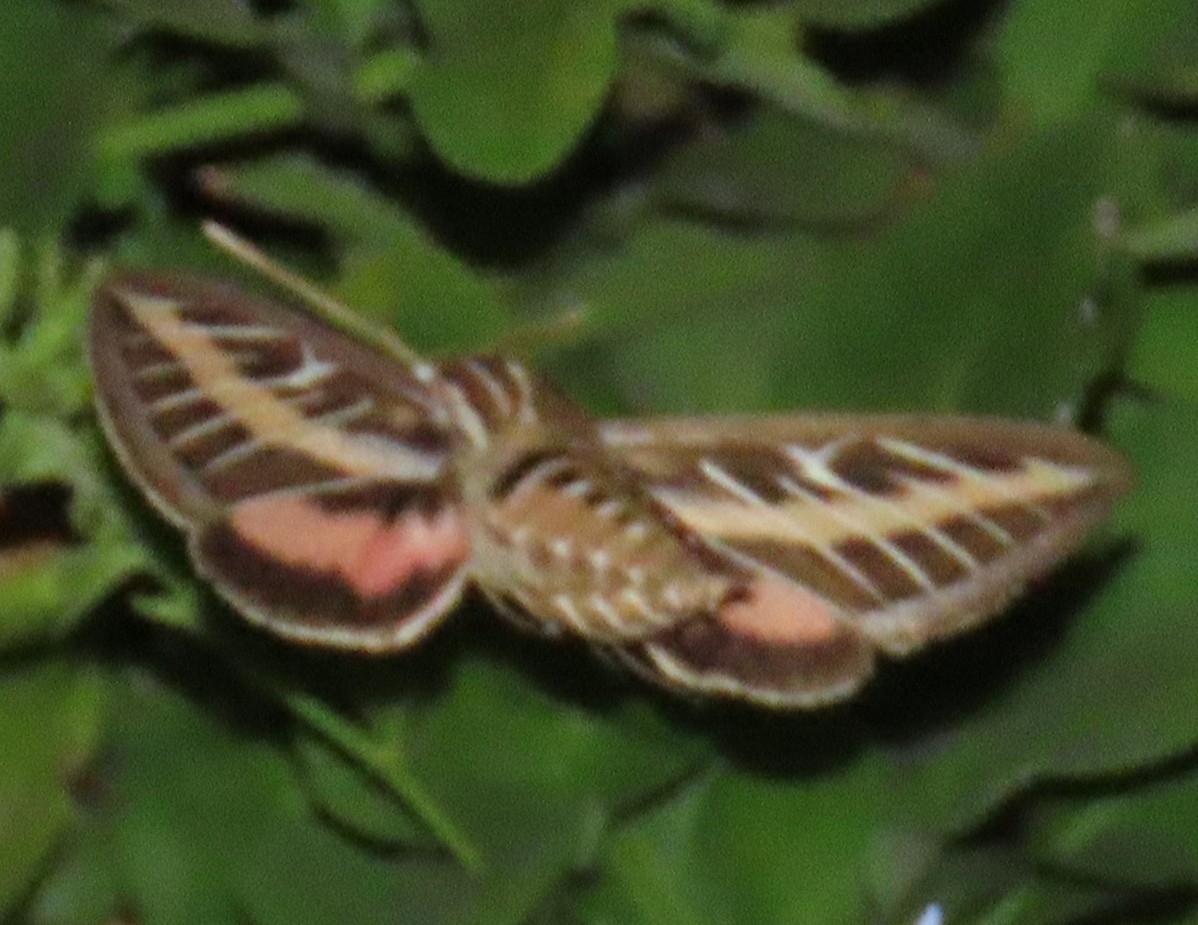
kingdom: Animalia
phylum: Arthropoda
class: Insecta
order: Lepidoptera
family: Sphingidae
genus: Hyles
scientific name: Hyles lineata
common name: White-lined sphinx
